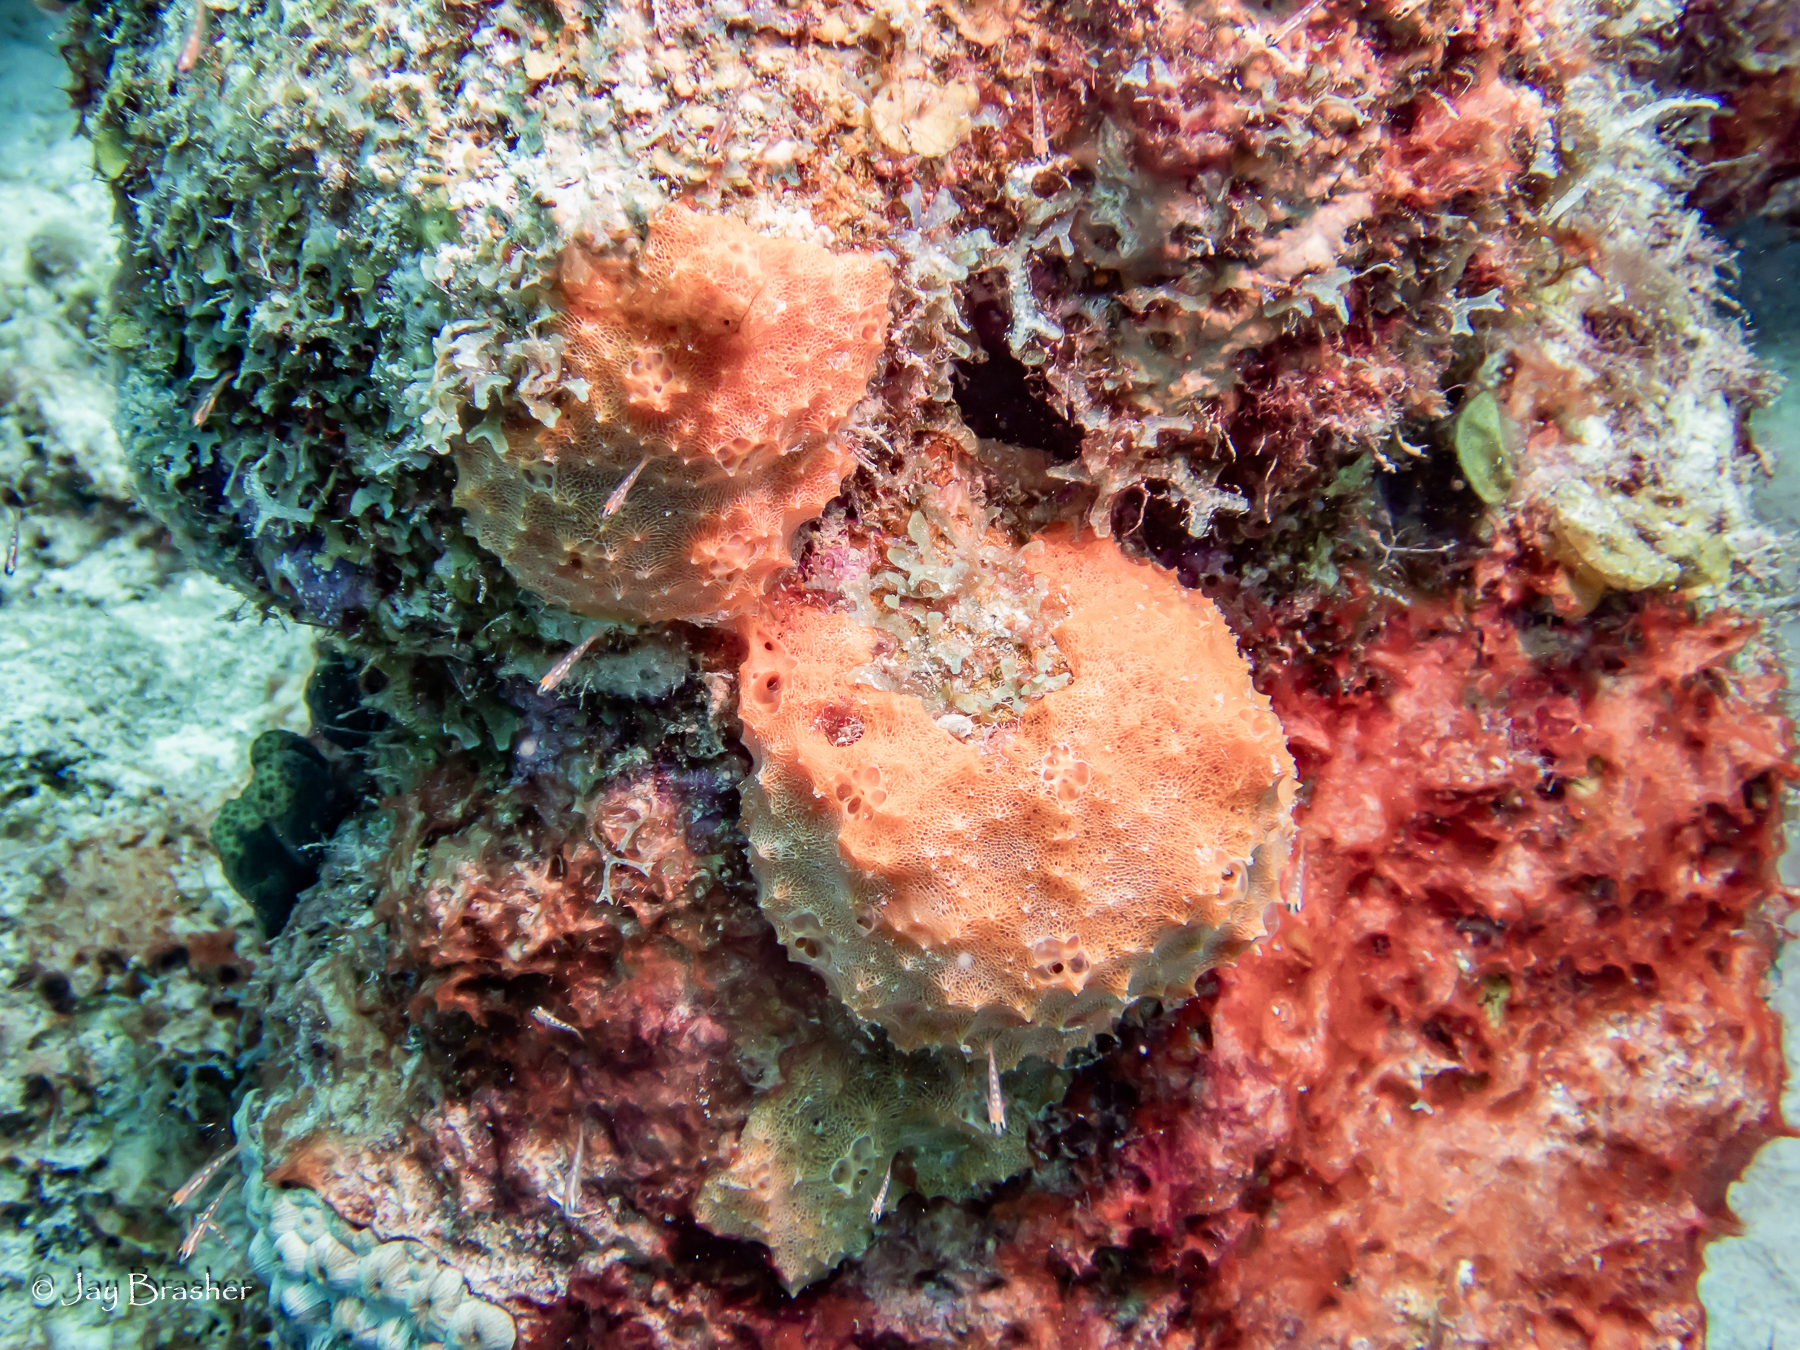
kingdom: Animalia
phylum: Porifera
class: Demospongiae
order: Scopalinida
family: Scopalinidae
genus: Scopalina
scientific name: Scopalina ruetzleri
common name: Orange lumpy encrusting sponge
